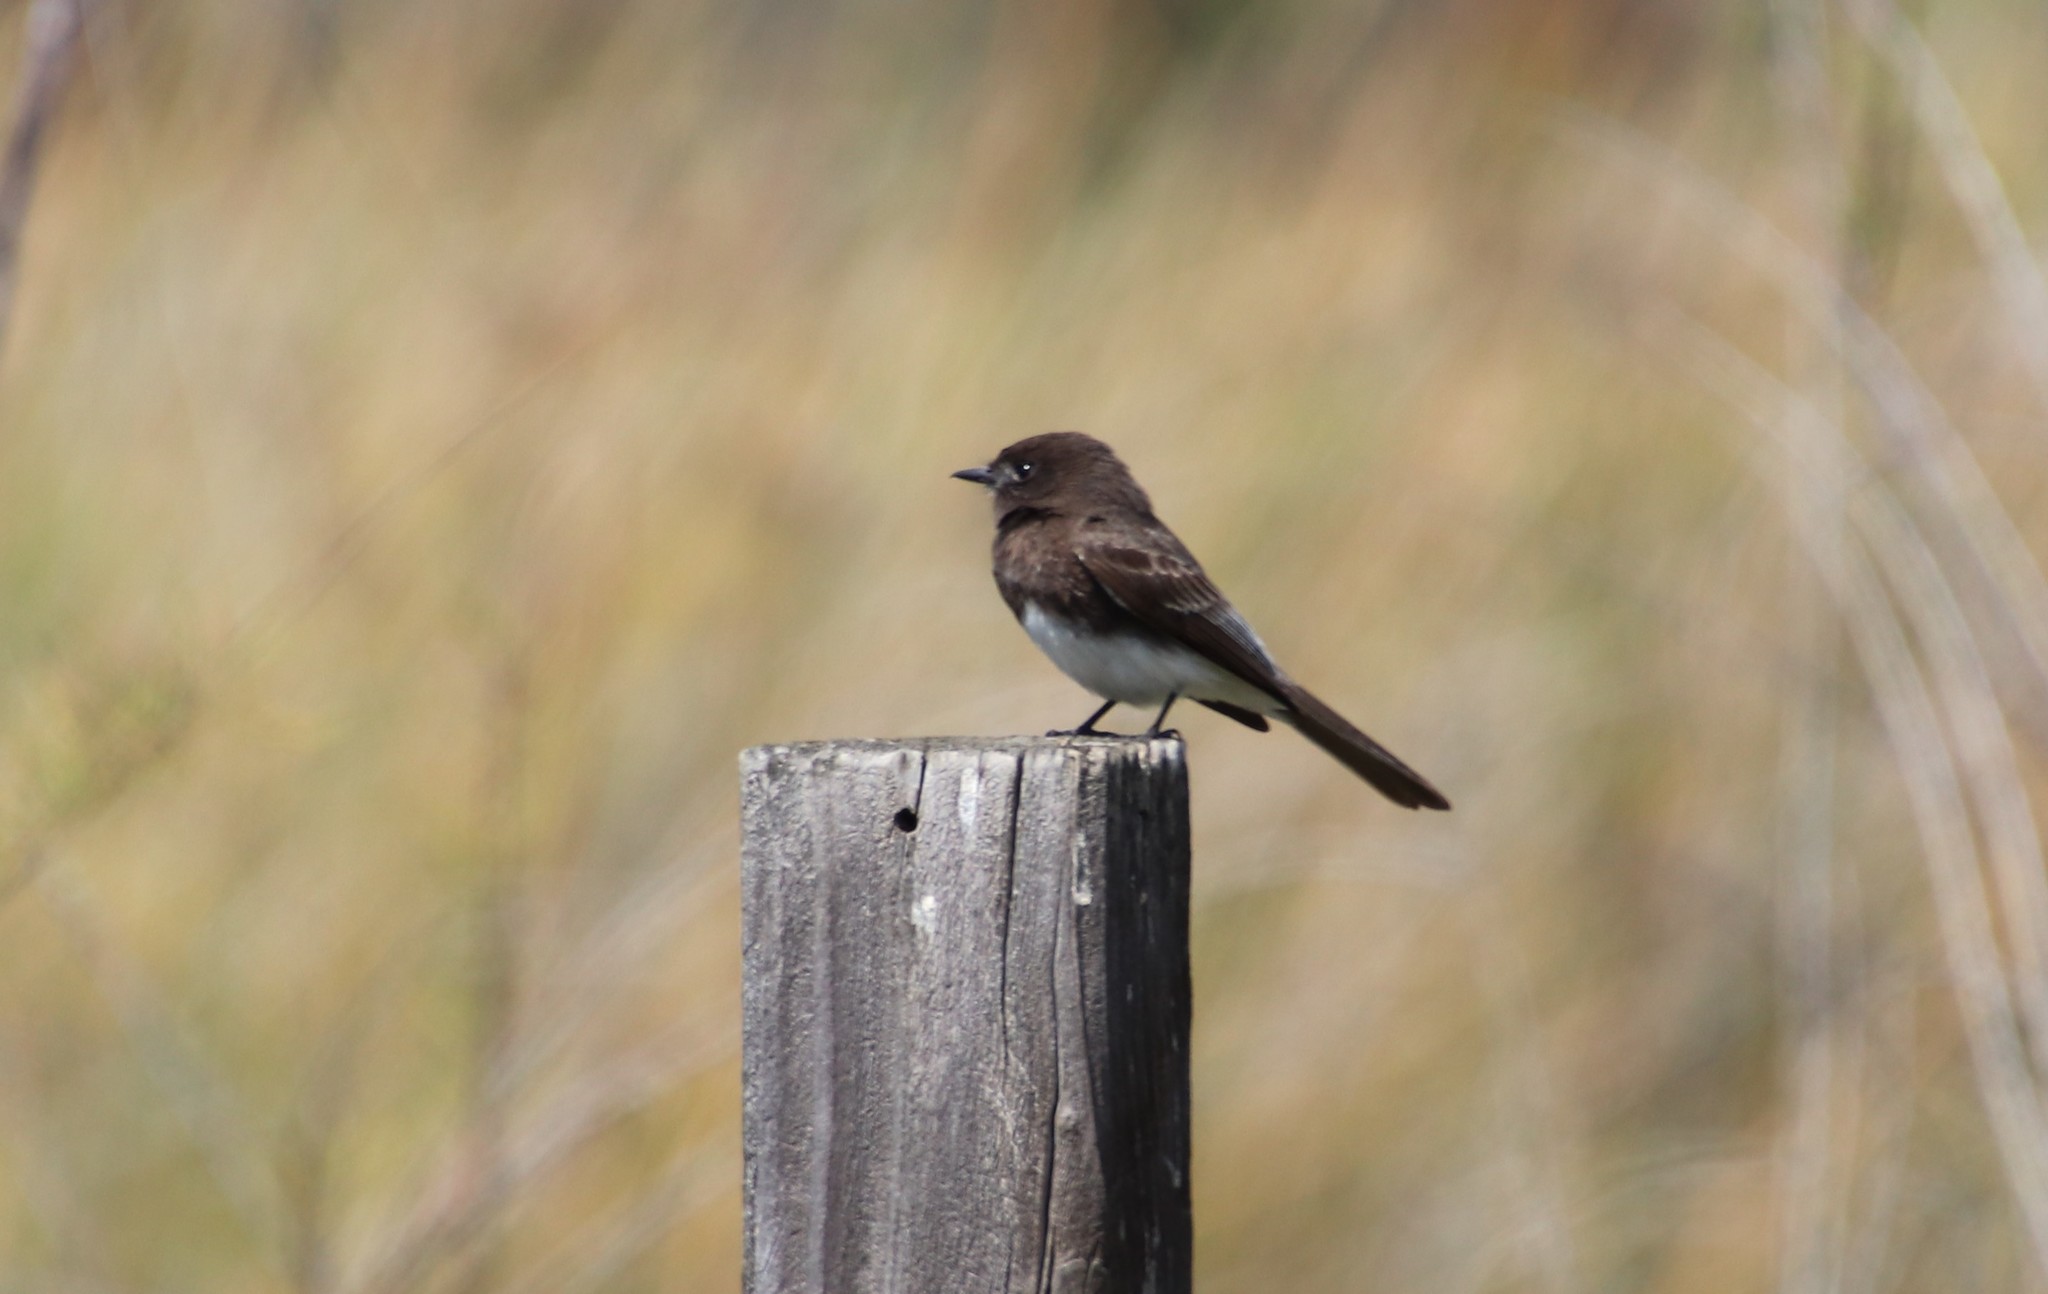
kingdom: Animalia
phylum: Chordata
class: Aves
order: Passeriformes
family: Tyrannidae
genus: Sayornis
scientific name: Sayornis nigricans
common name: Black phoebe
